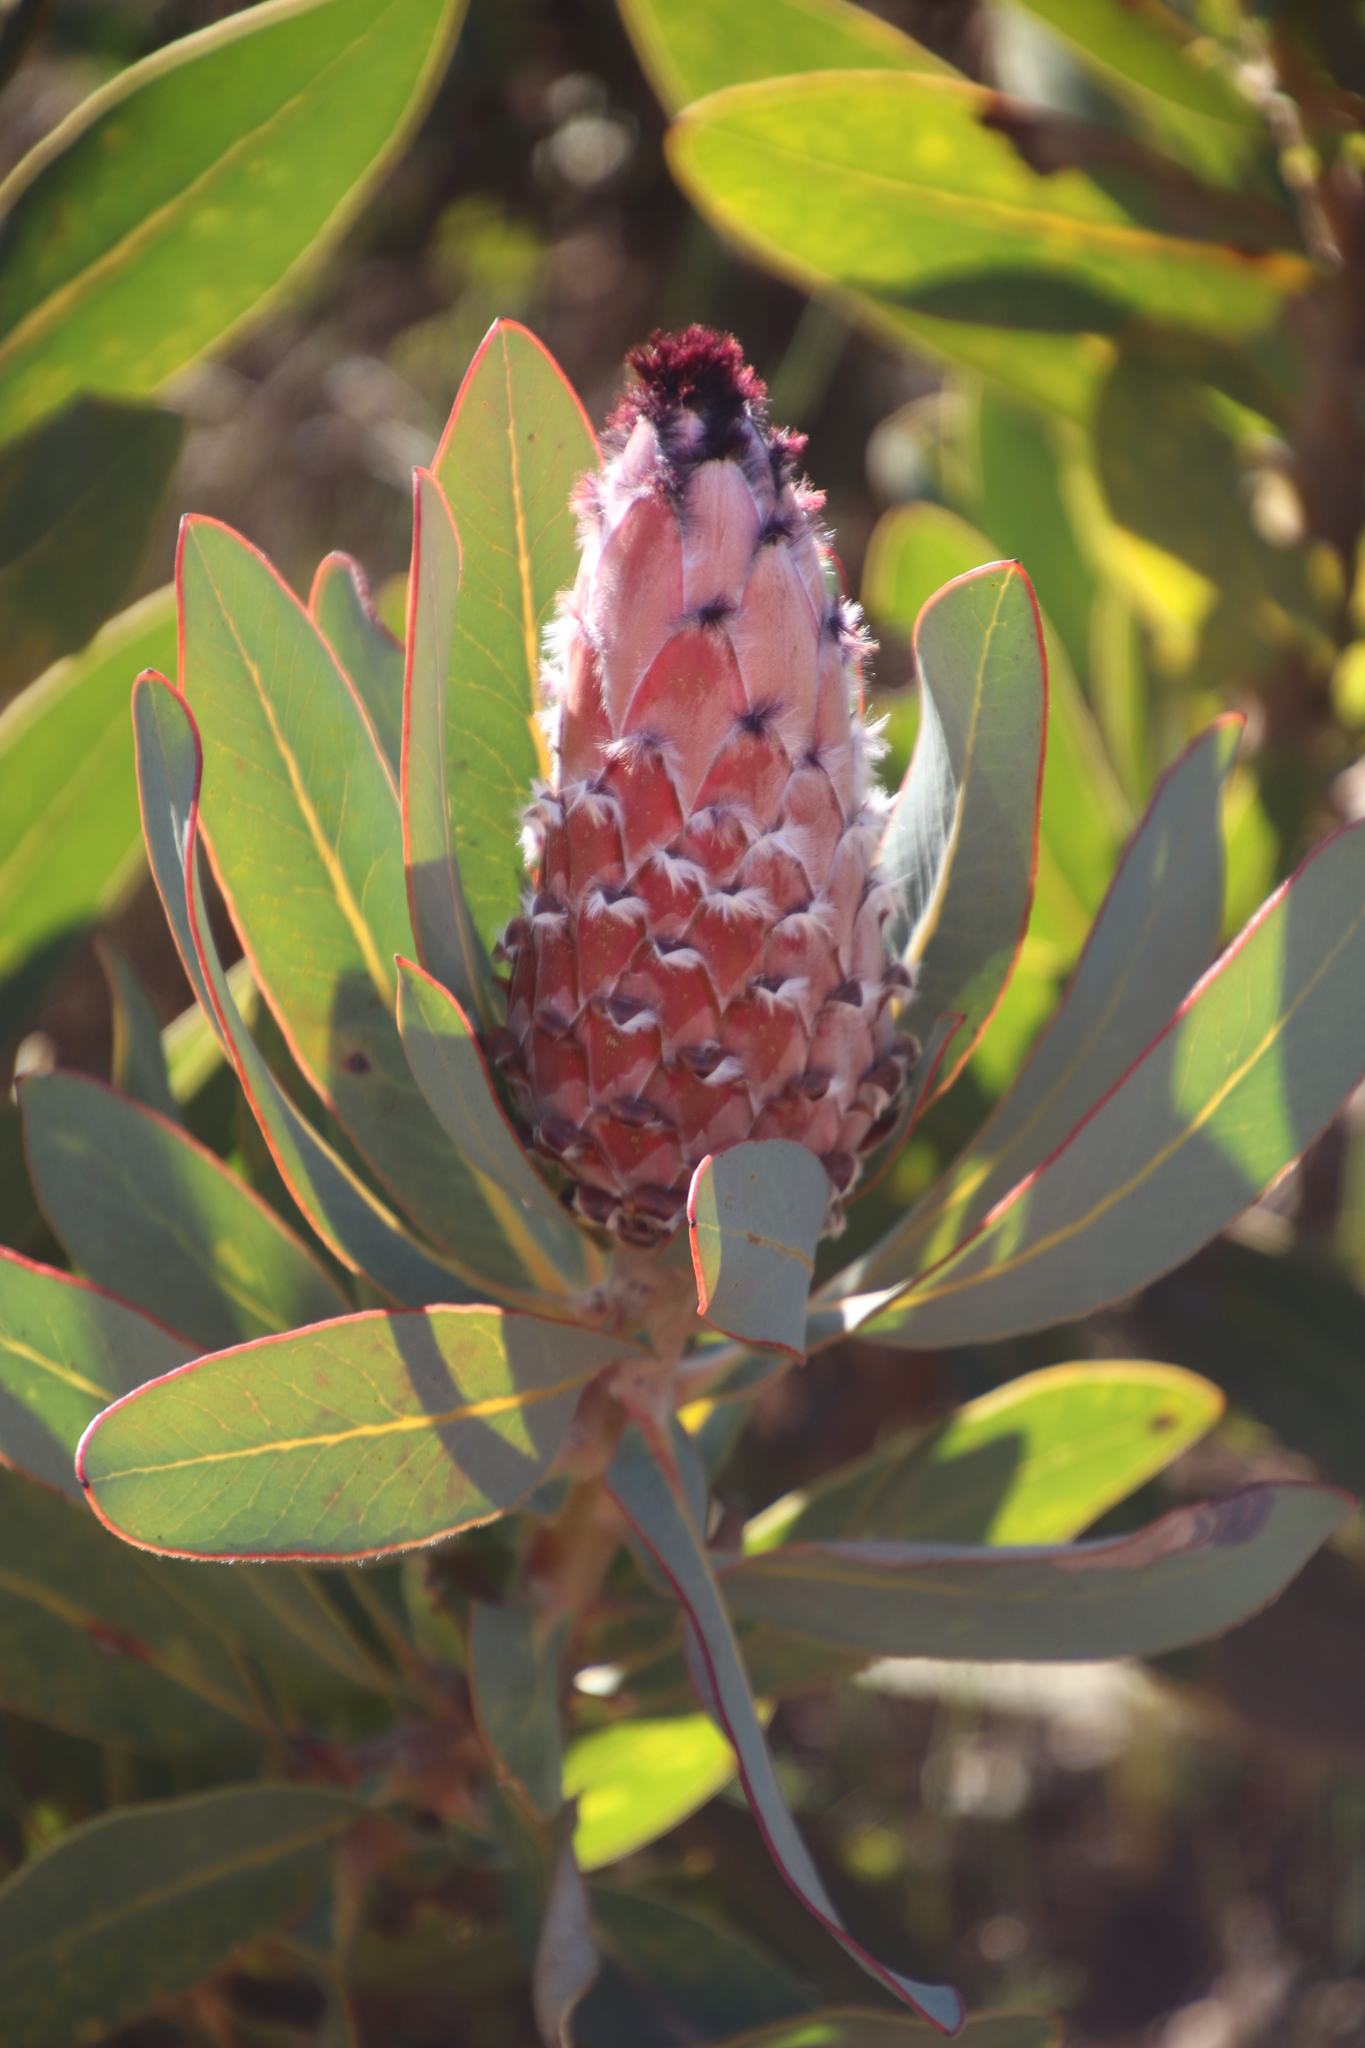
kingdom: Plantae
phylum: Tracheophyta
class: Magnoliopsida
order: Proteales
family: Proteaceae
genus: Protea
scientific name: Protea
